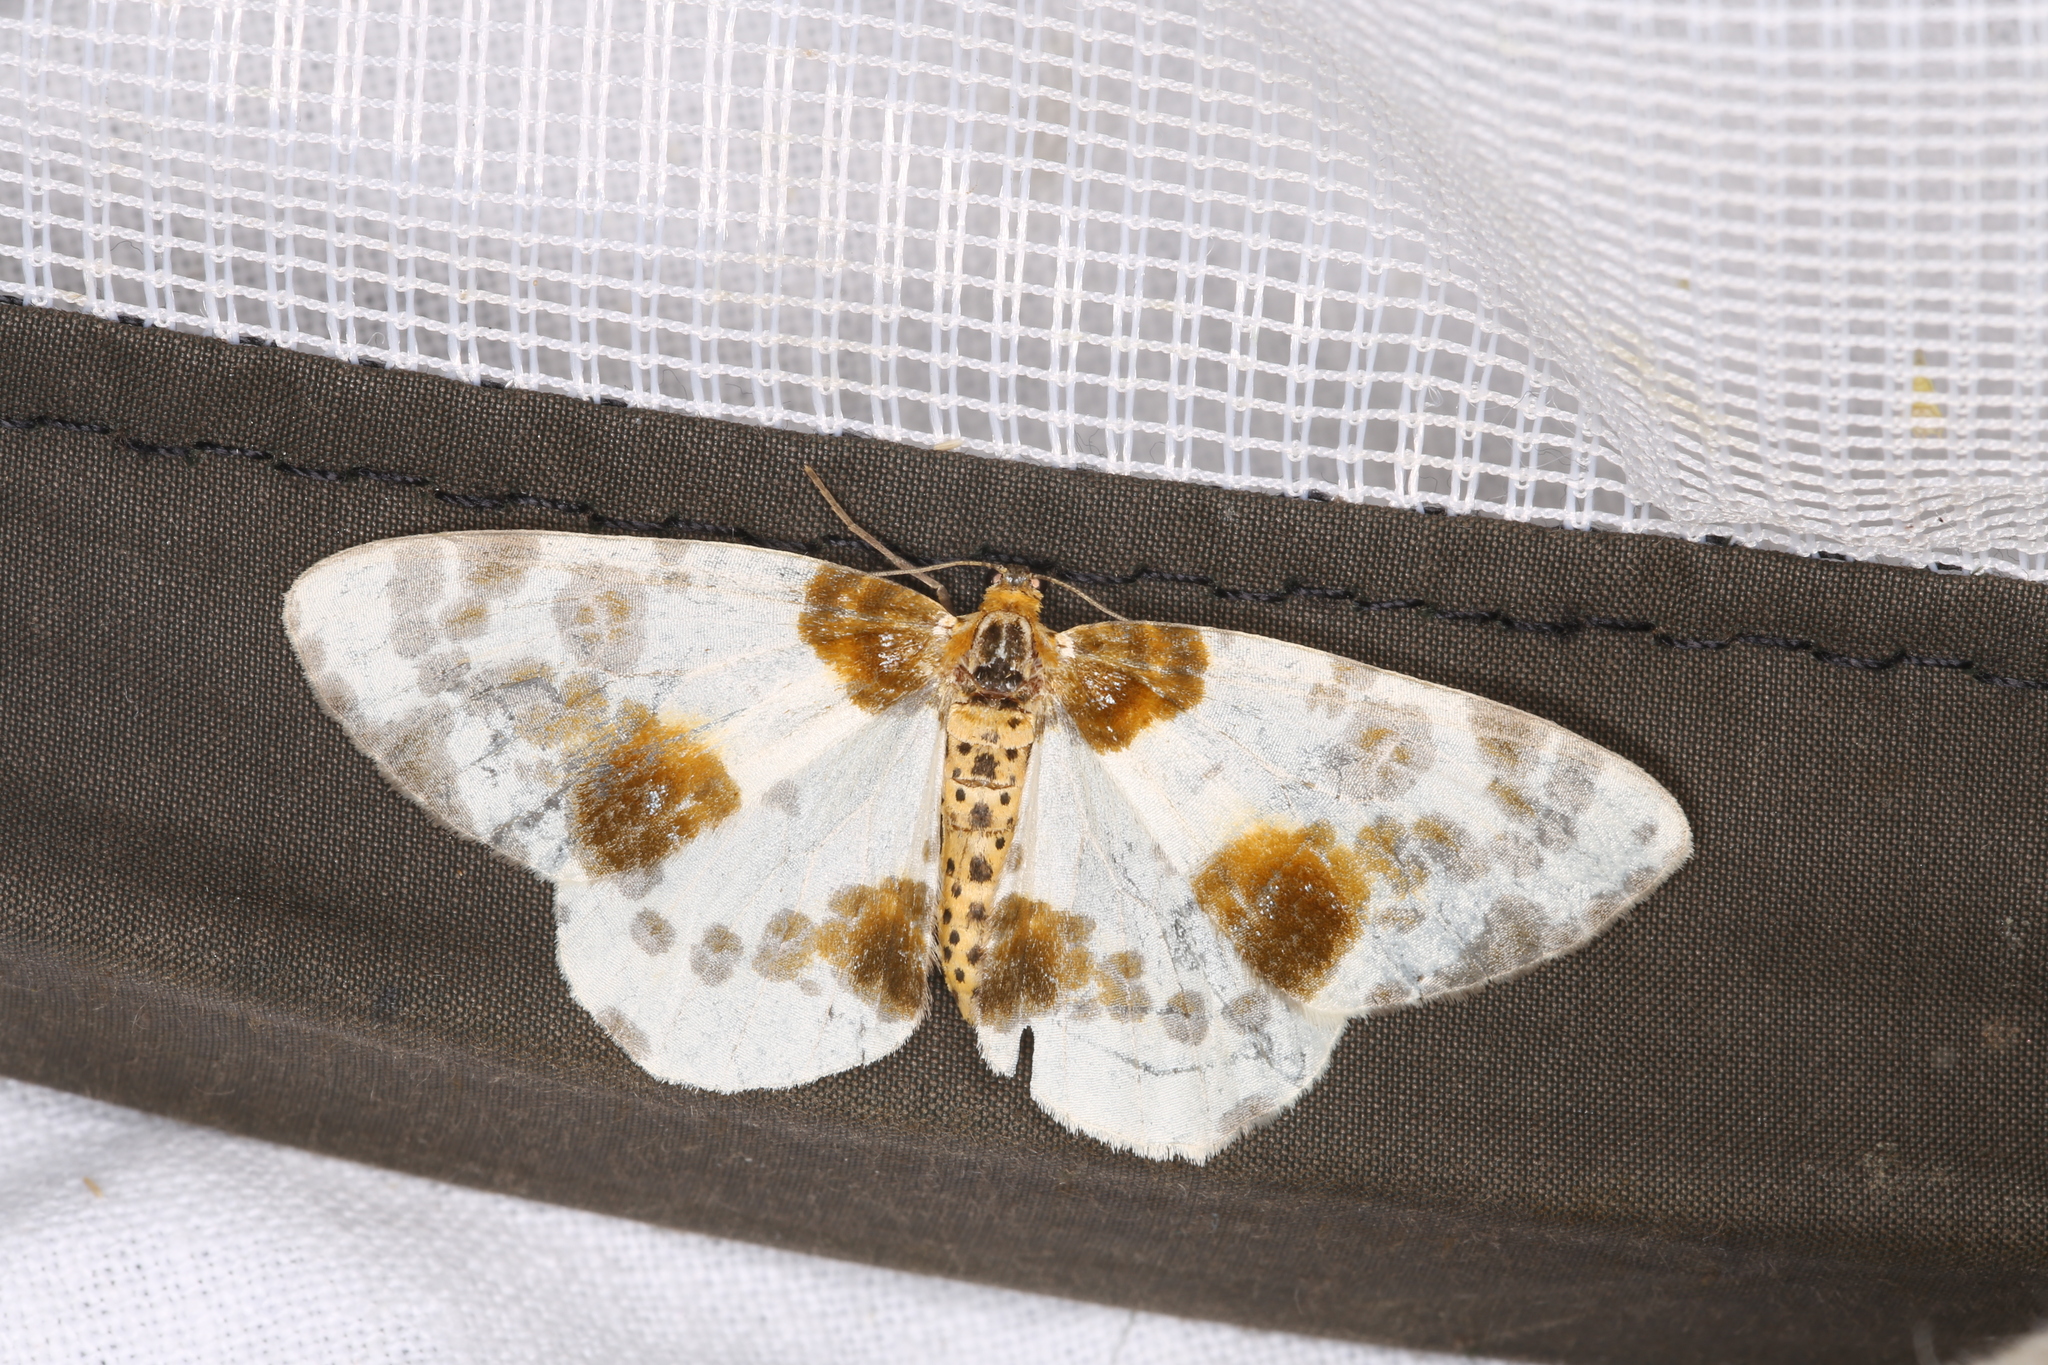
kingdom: Animalia
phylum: Arthropoda
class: Insecta
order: Lepidoptera
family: Geometridae
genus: Abraxas
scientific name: Abraxas sylvata
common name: Clouded magpie
